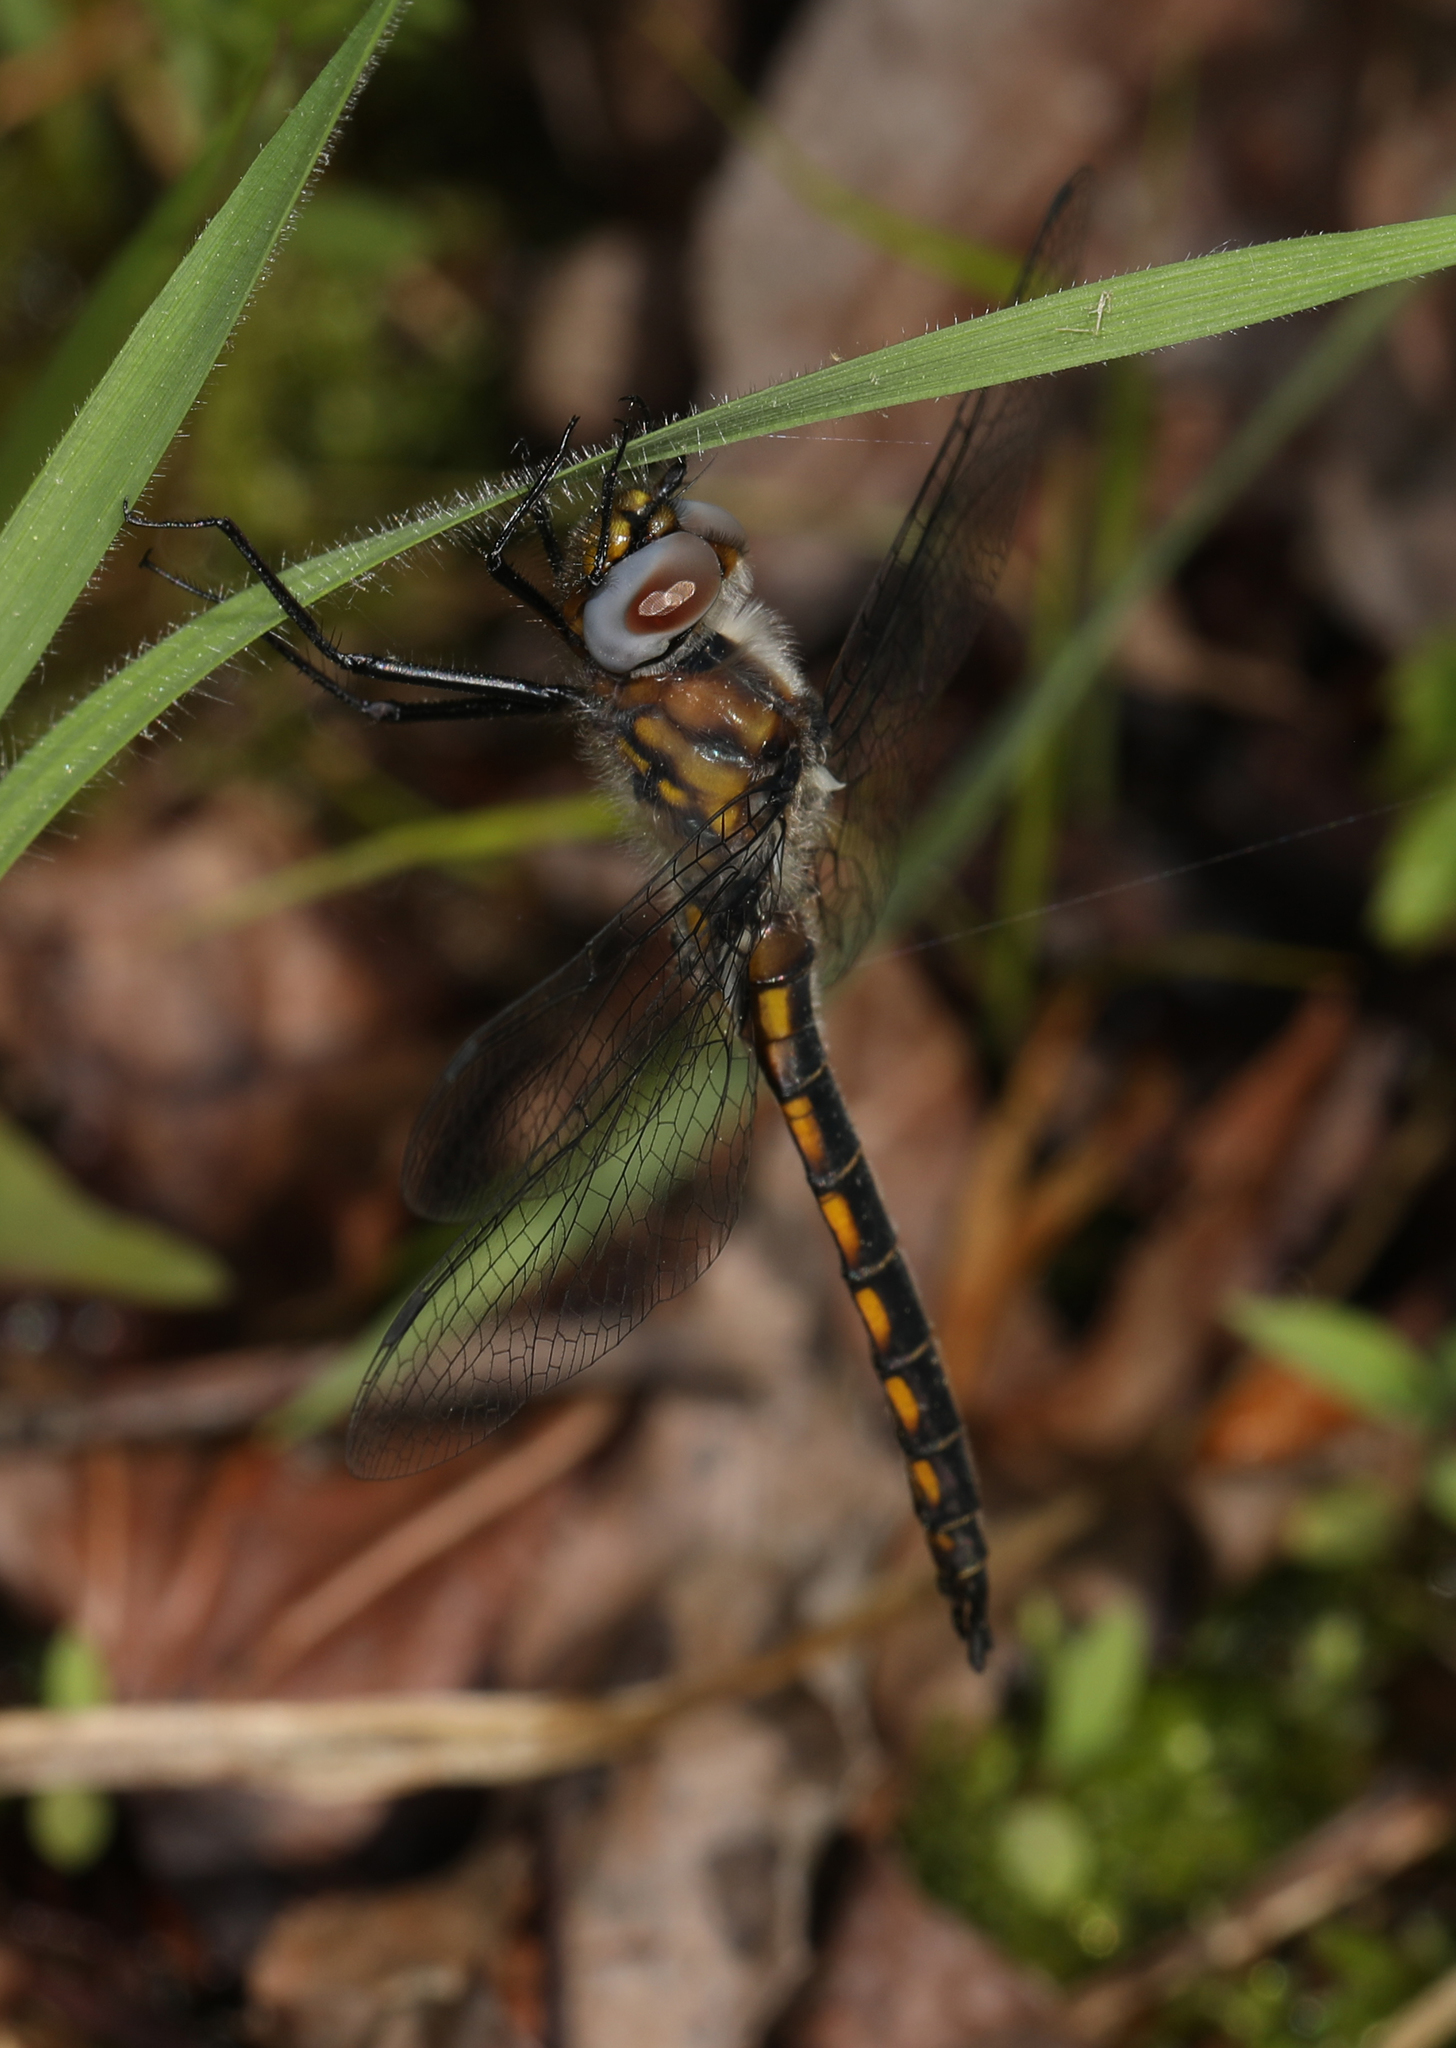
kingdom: Animalia
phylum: Arthropoda
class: Insecta
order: Odonata
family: Corduliidae
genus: Epitheca
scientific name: Epitheca cynosura
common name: Common baskettail
